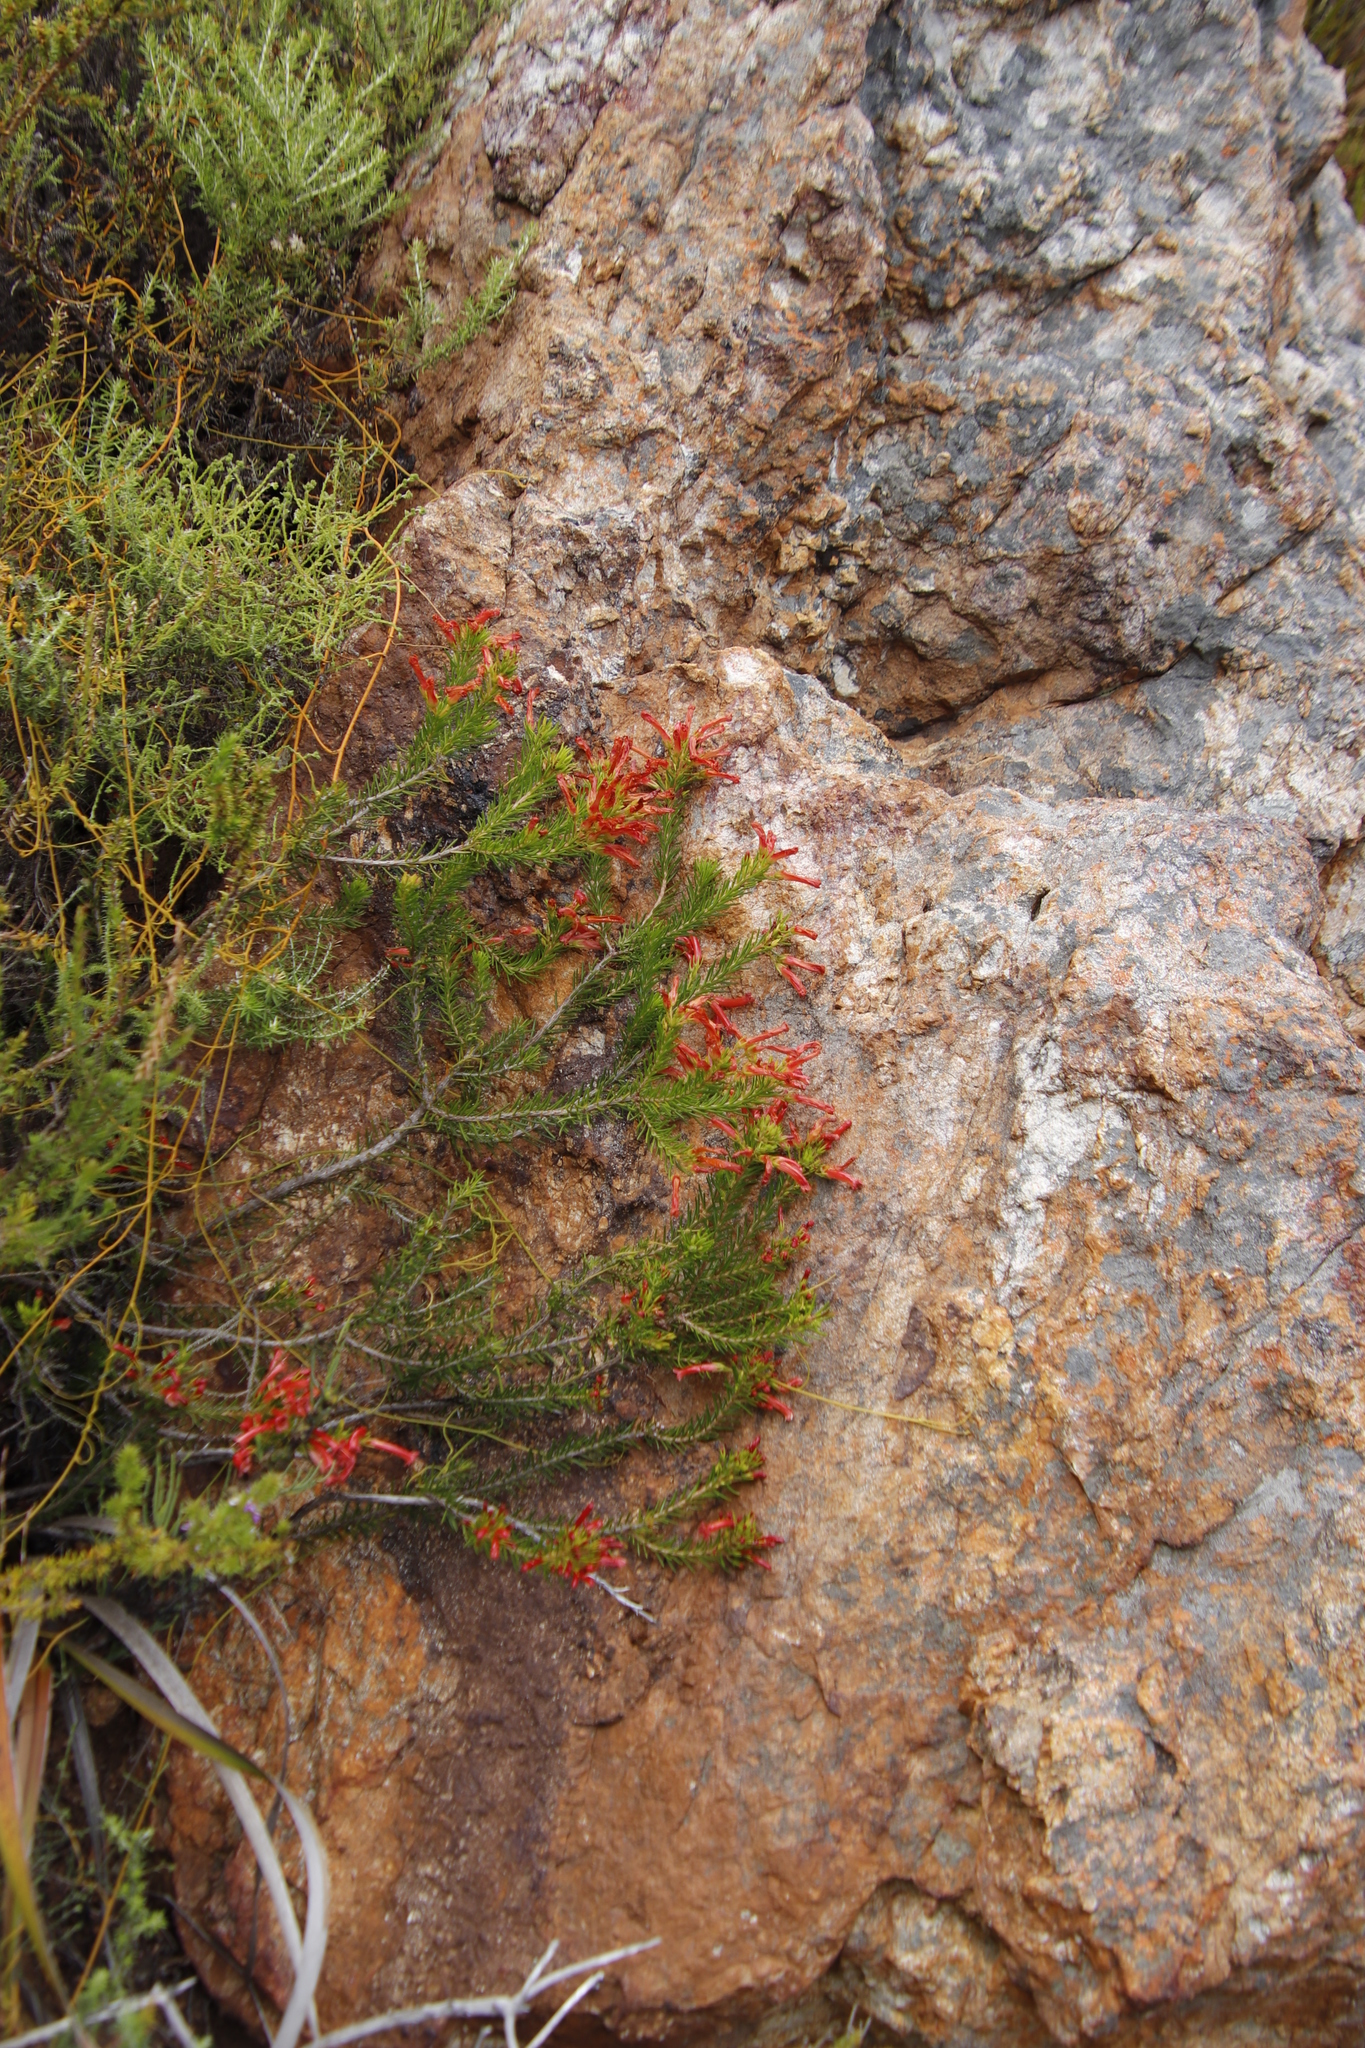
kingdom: Plantae
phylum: Tracheophyta
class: Magnoliopsida
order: Ericales
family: Ericaceae
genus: Erica
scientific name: Erica nevillei
